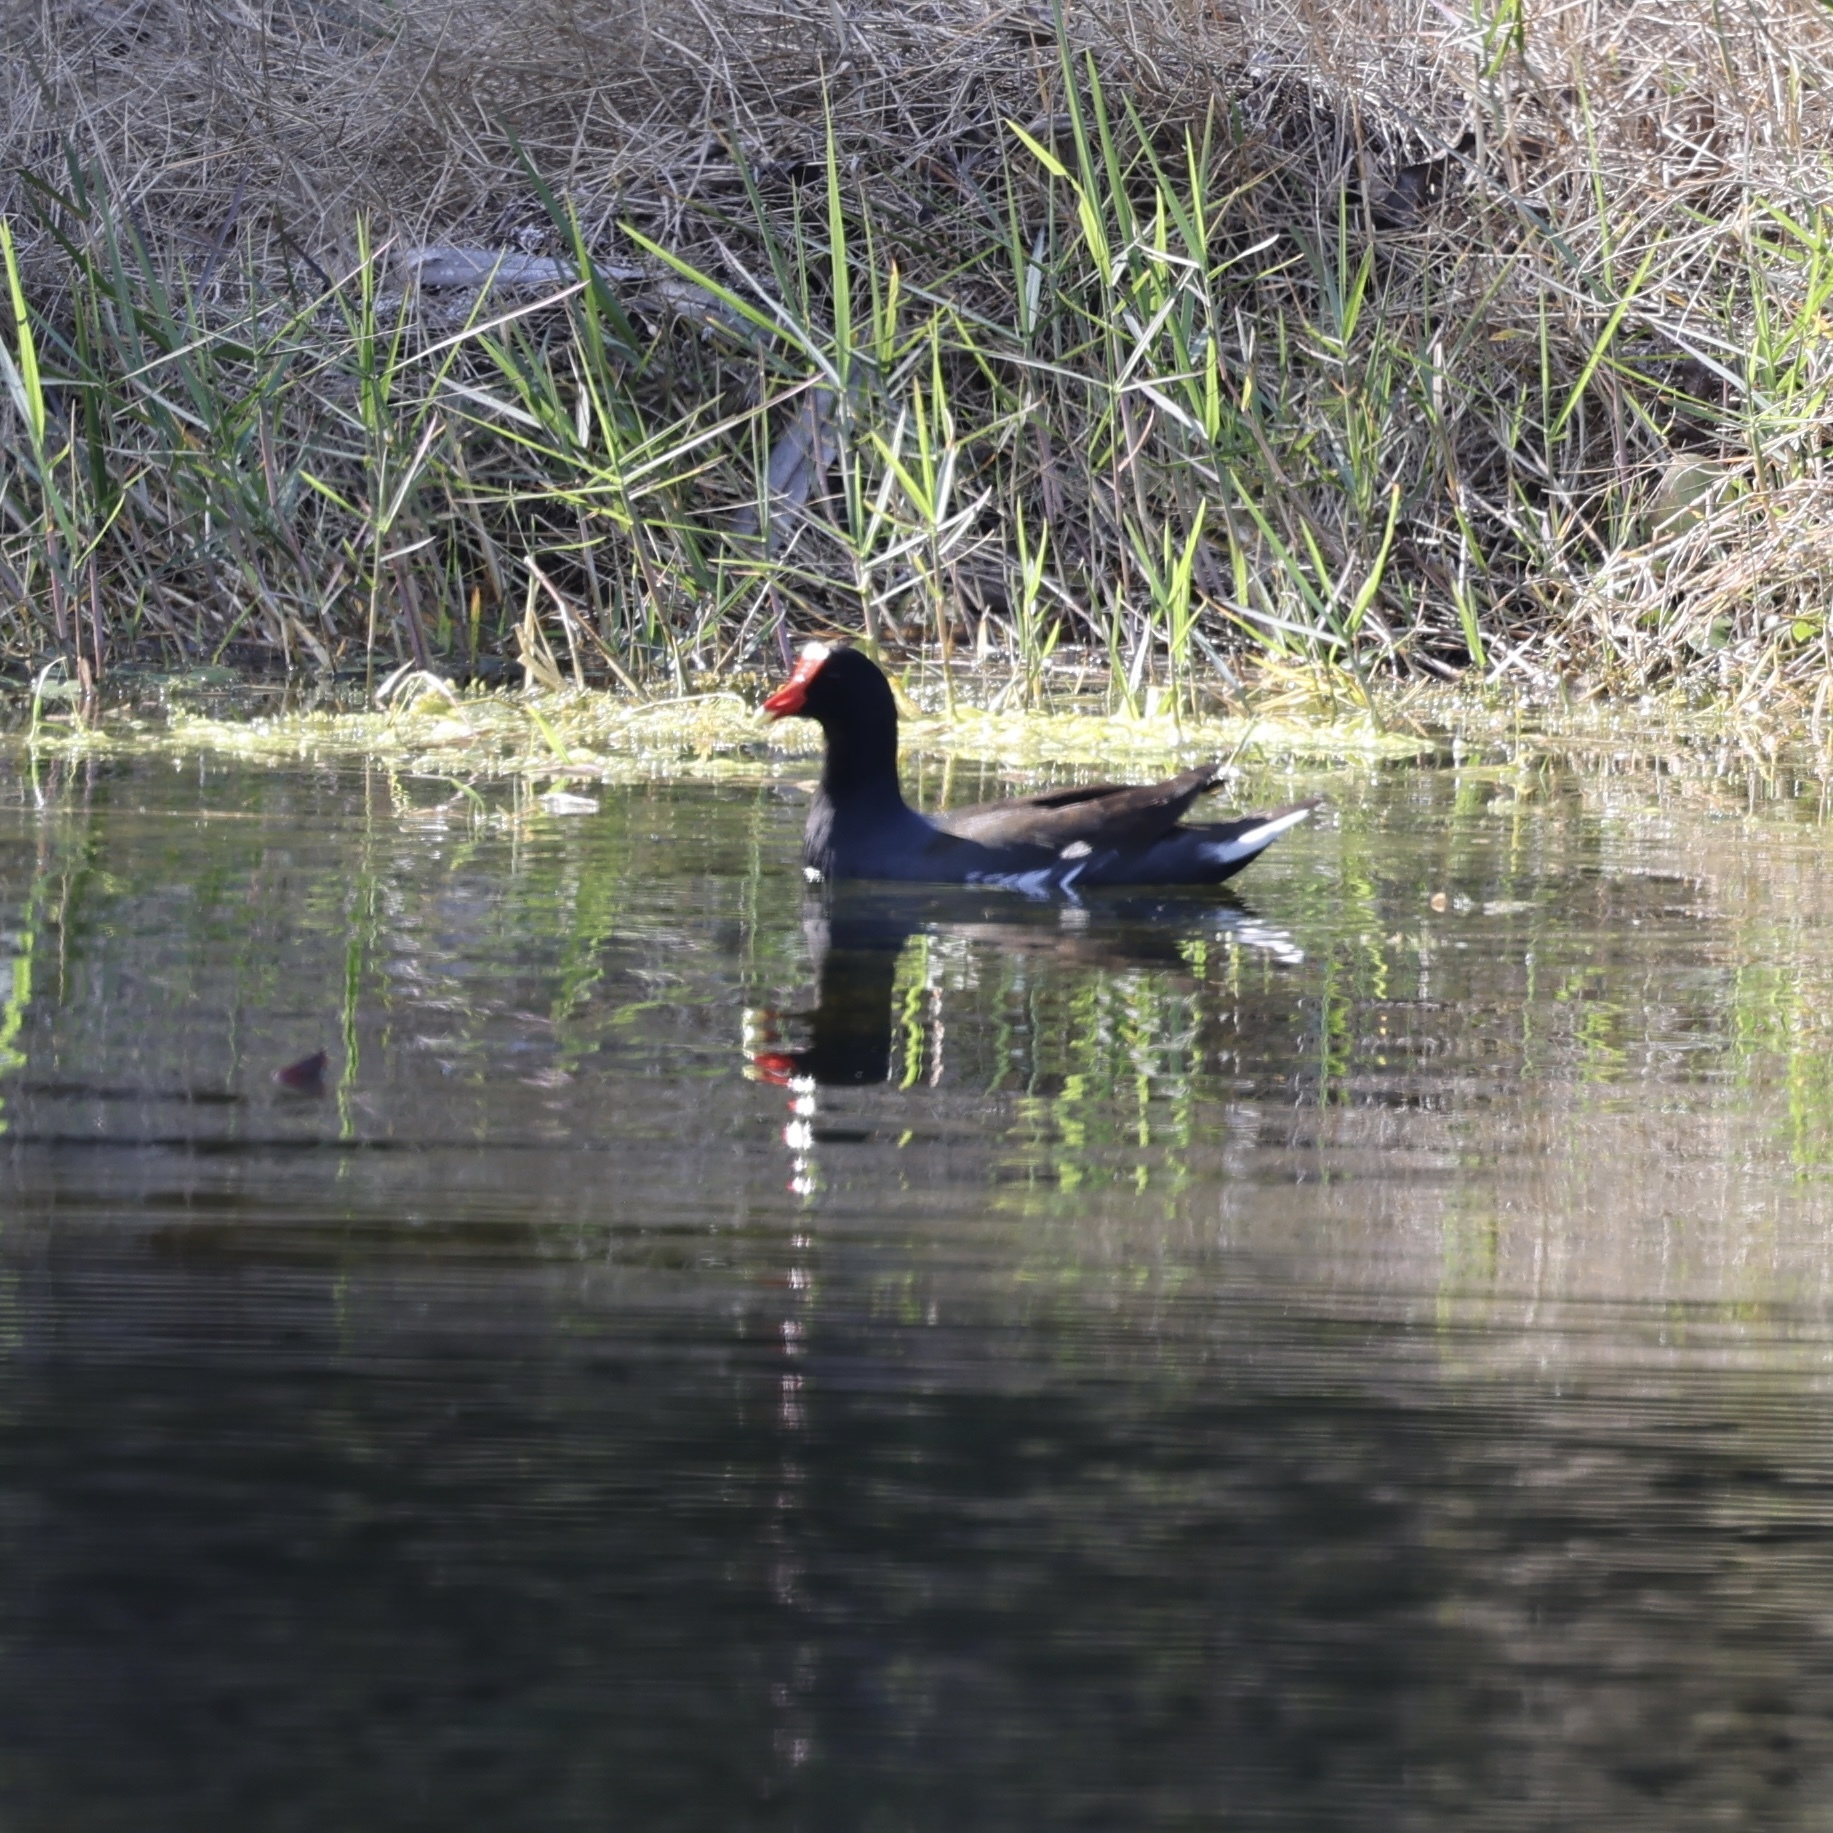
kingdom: Animalia
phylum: Chordata
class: Aves
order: Gruiformes
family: Rallidae
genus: Gallinula
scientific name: Gallinula chloropus
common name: Common moorhen
